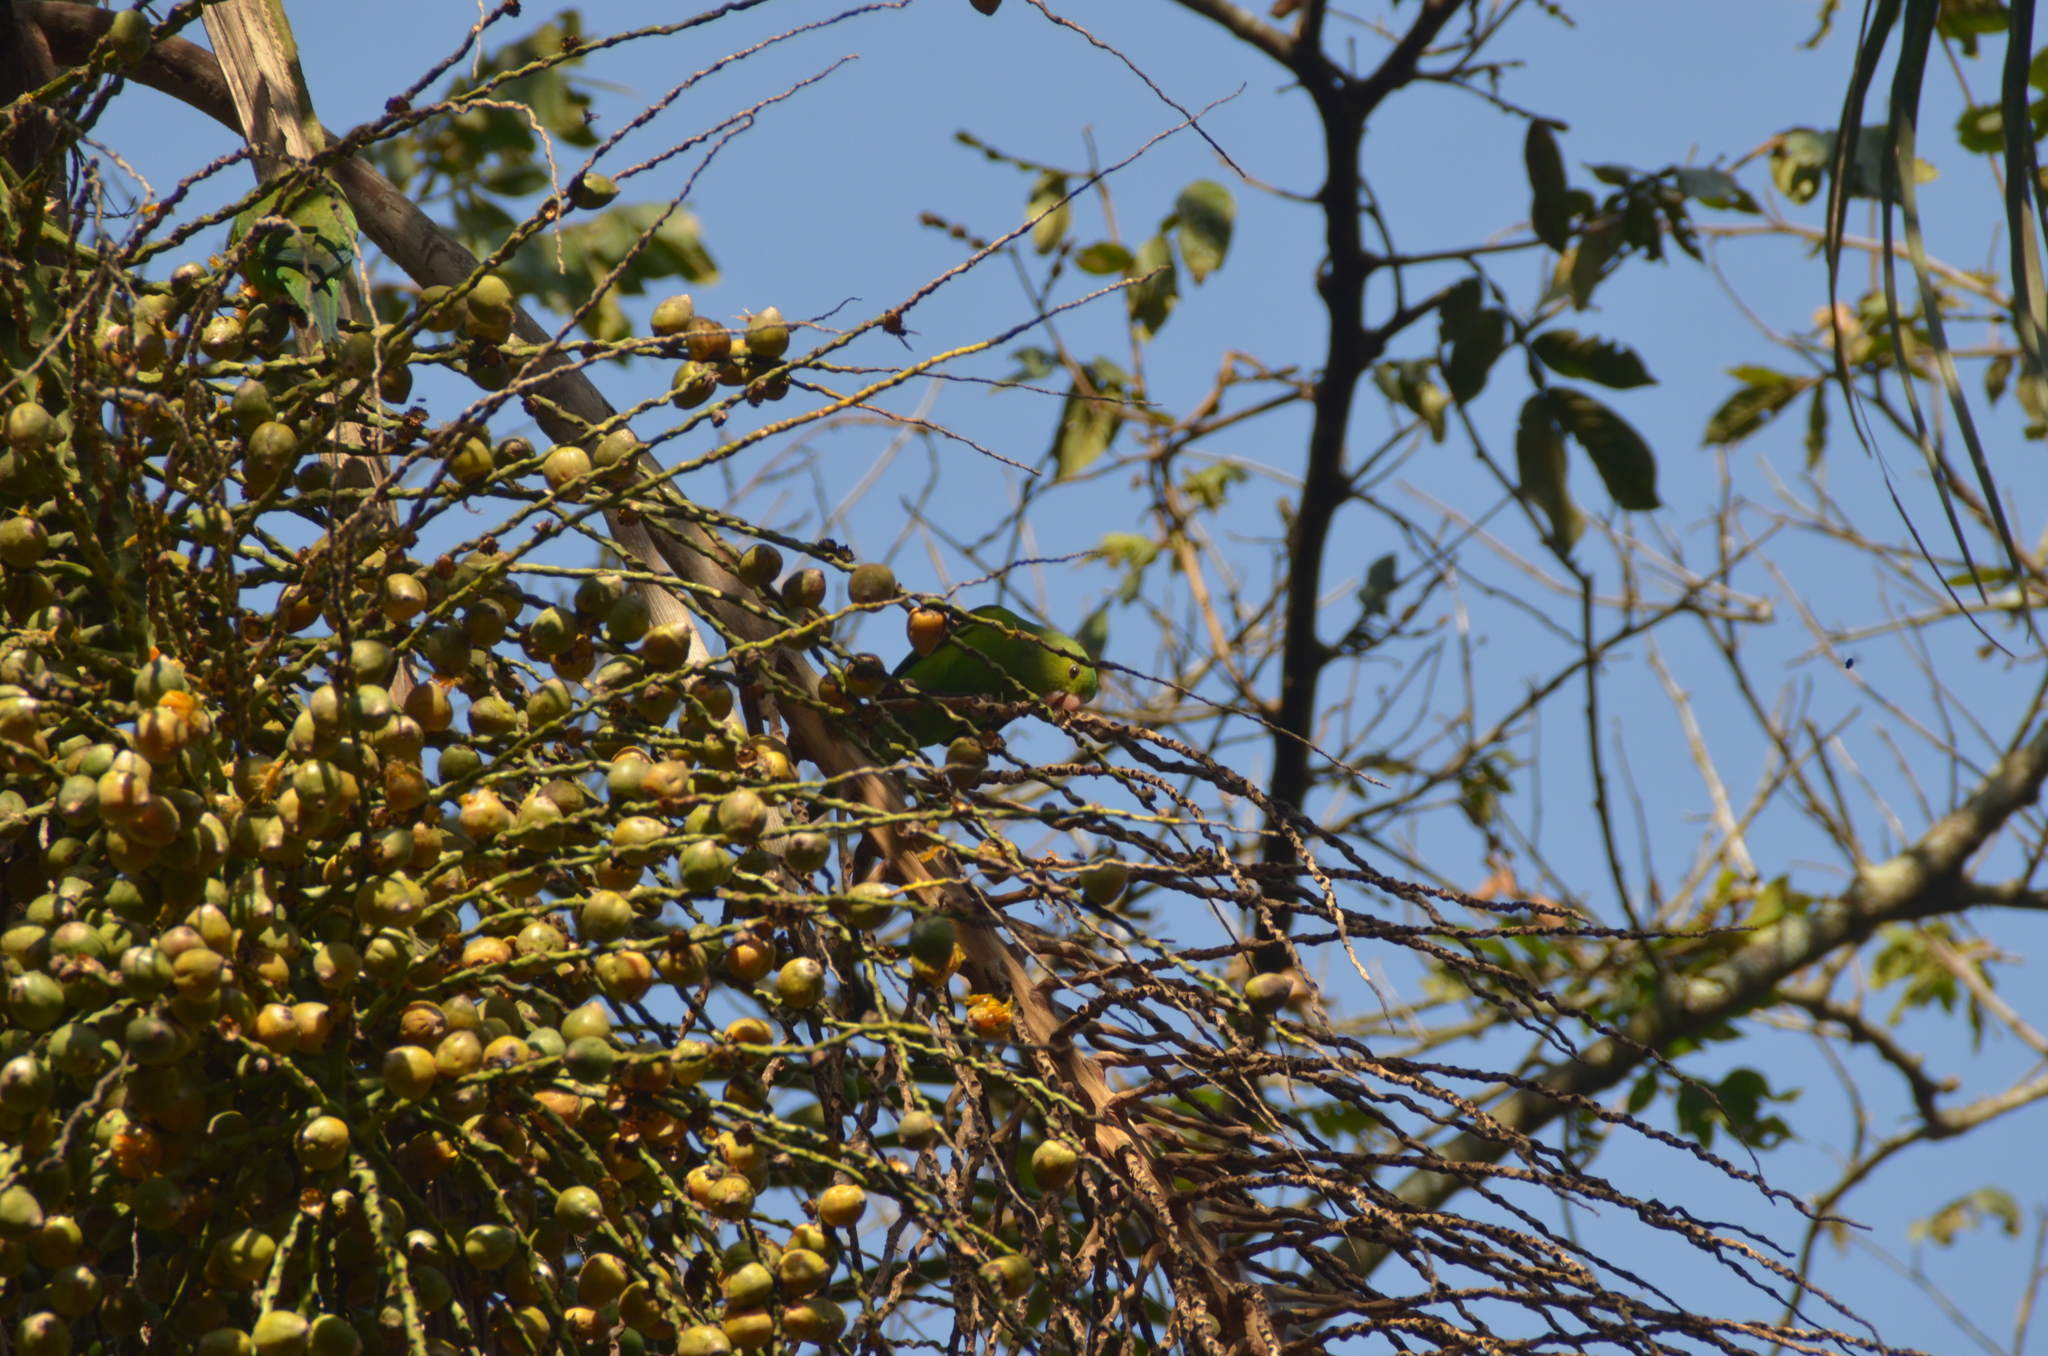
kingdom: Animalia
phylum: Chordata
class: Aves
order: Psittaciformes
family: Psittacidae
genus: Brotogeris
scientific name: Brotogeris tirica
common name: Plain parakeet
